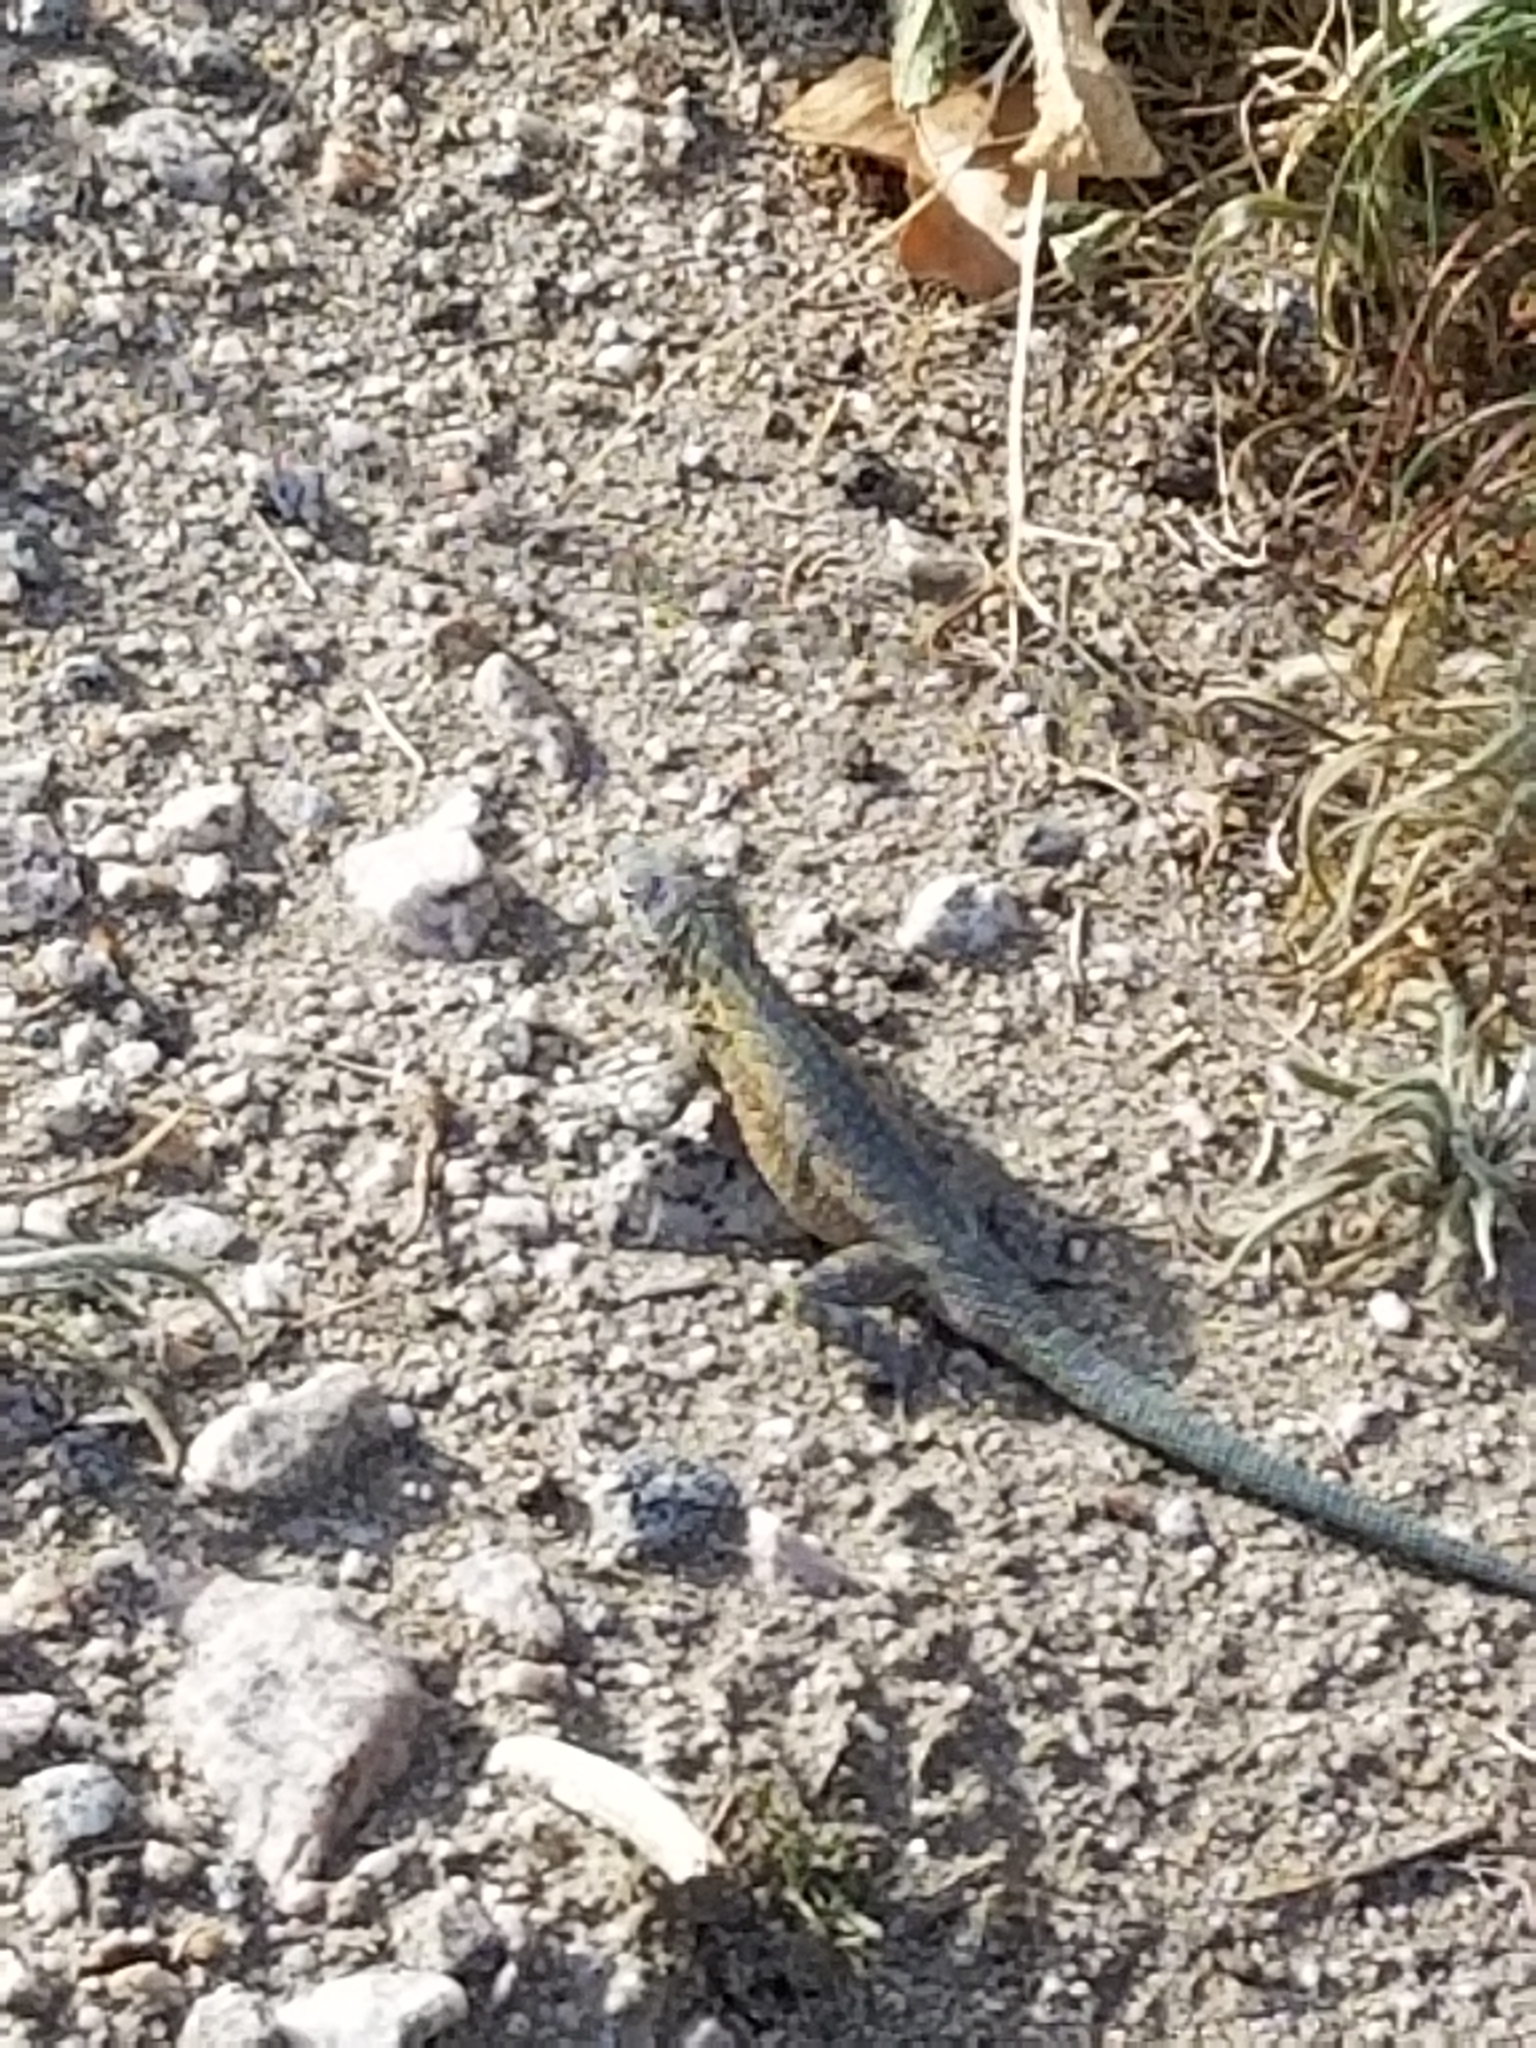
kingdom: Animalia
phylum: Chordata
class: Squamata
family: Phrynosomatidae
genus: Uta
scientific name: Uta stansburiana
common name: Side-blotched lizard
